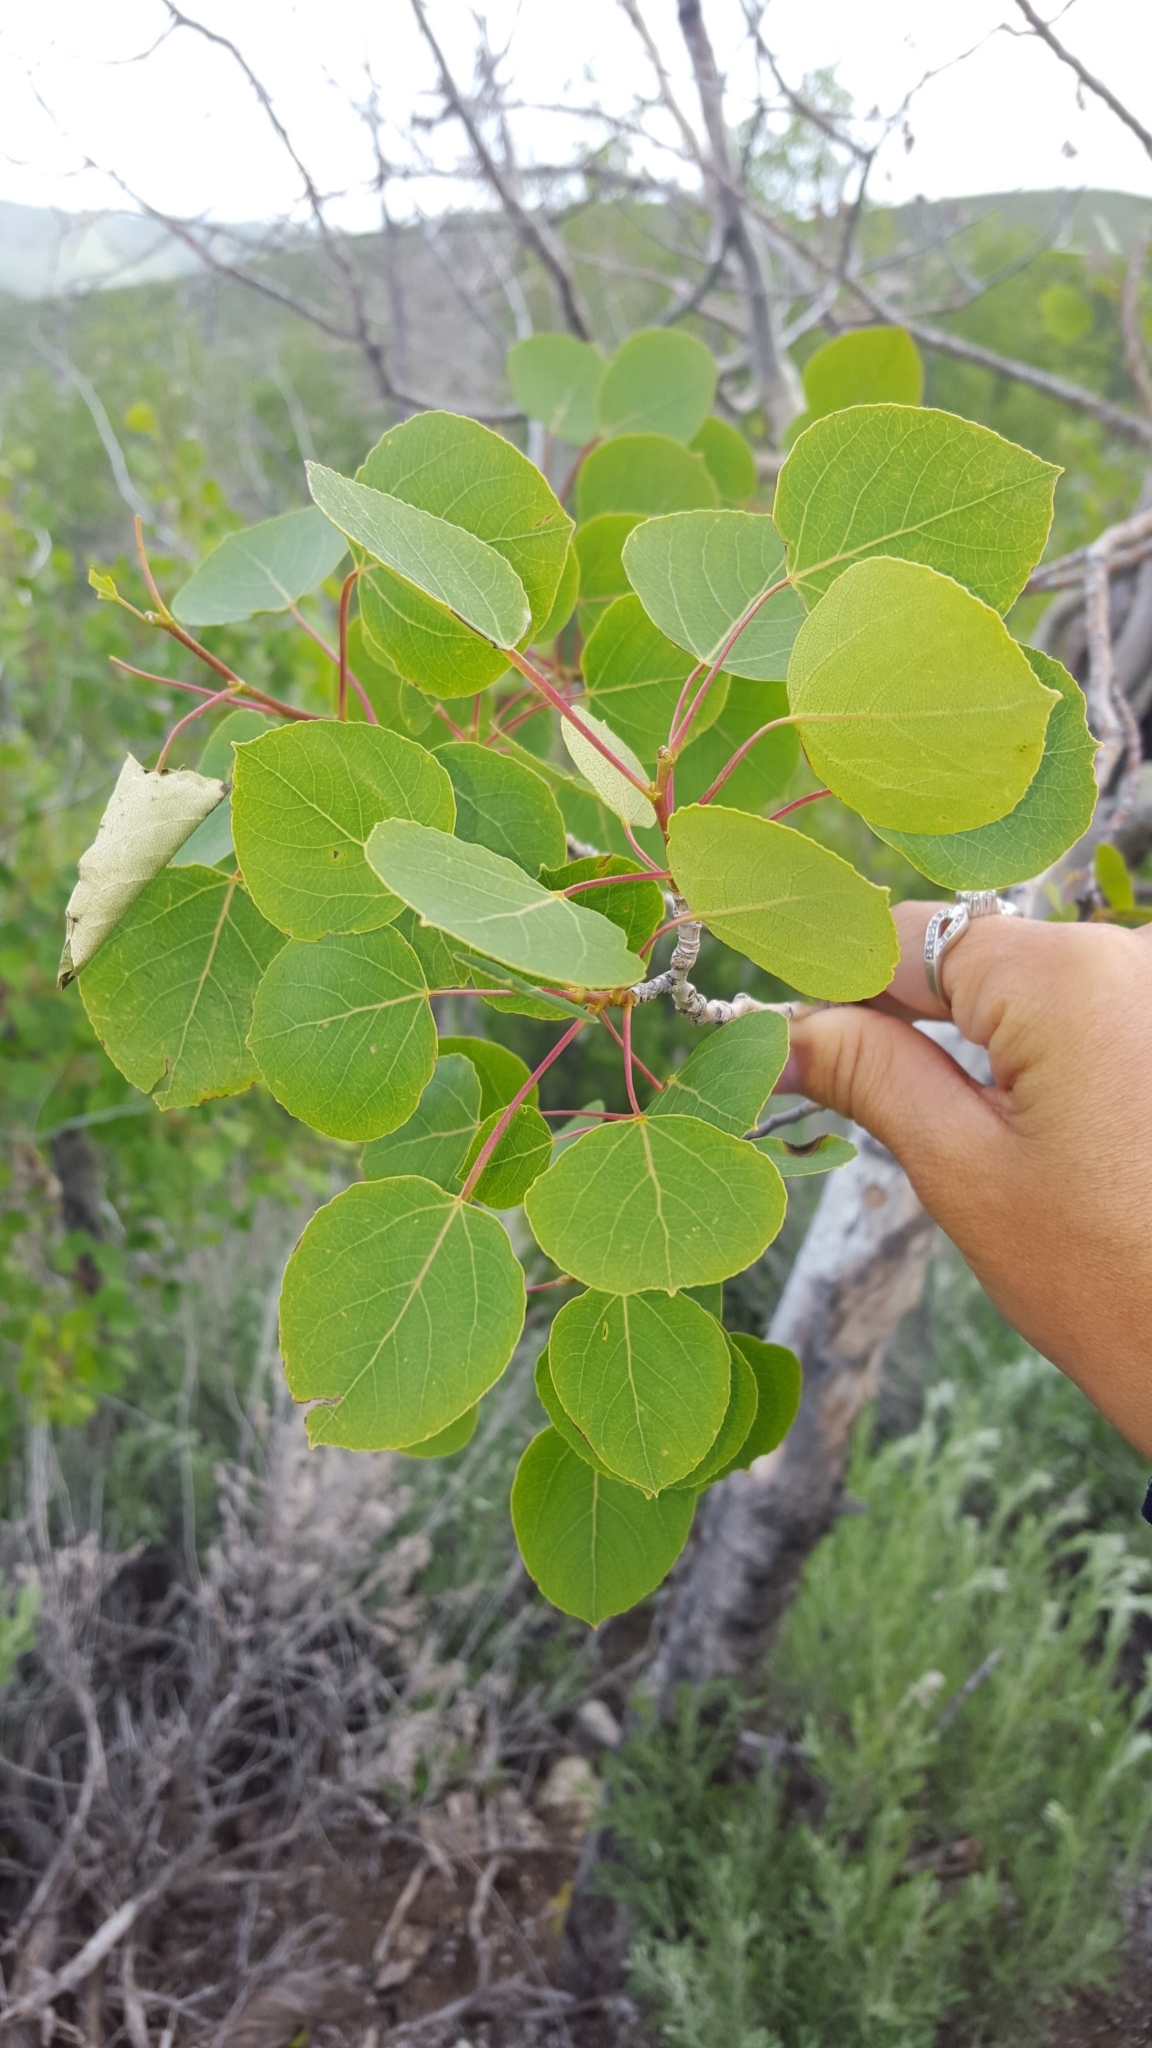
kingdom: Plantae
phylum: Tracheophyta
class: Magnoliopsida
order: Malpighiales
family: Salicaceae
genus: Populus
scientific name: Populus tremuloides
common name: Quaking aspen
